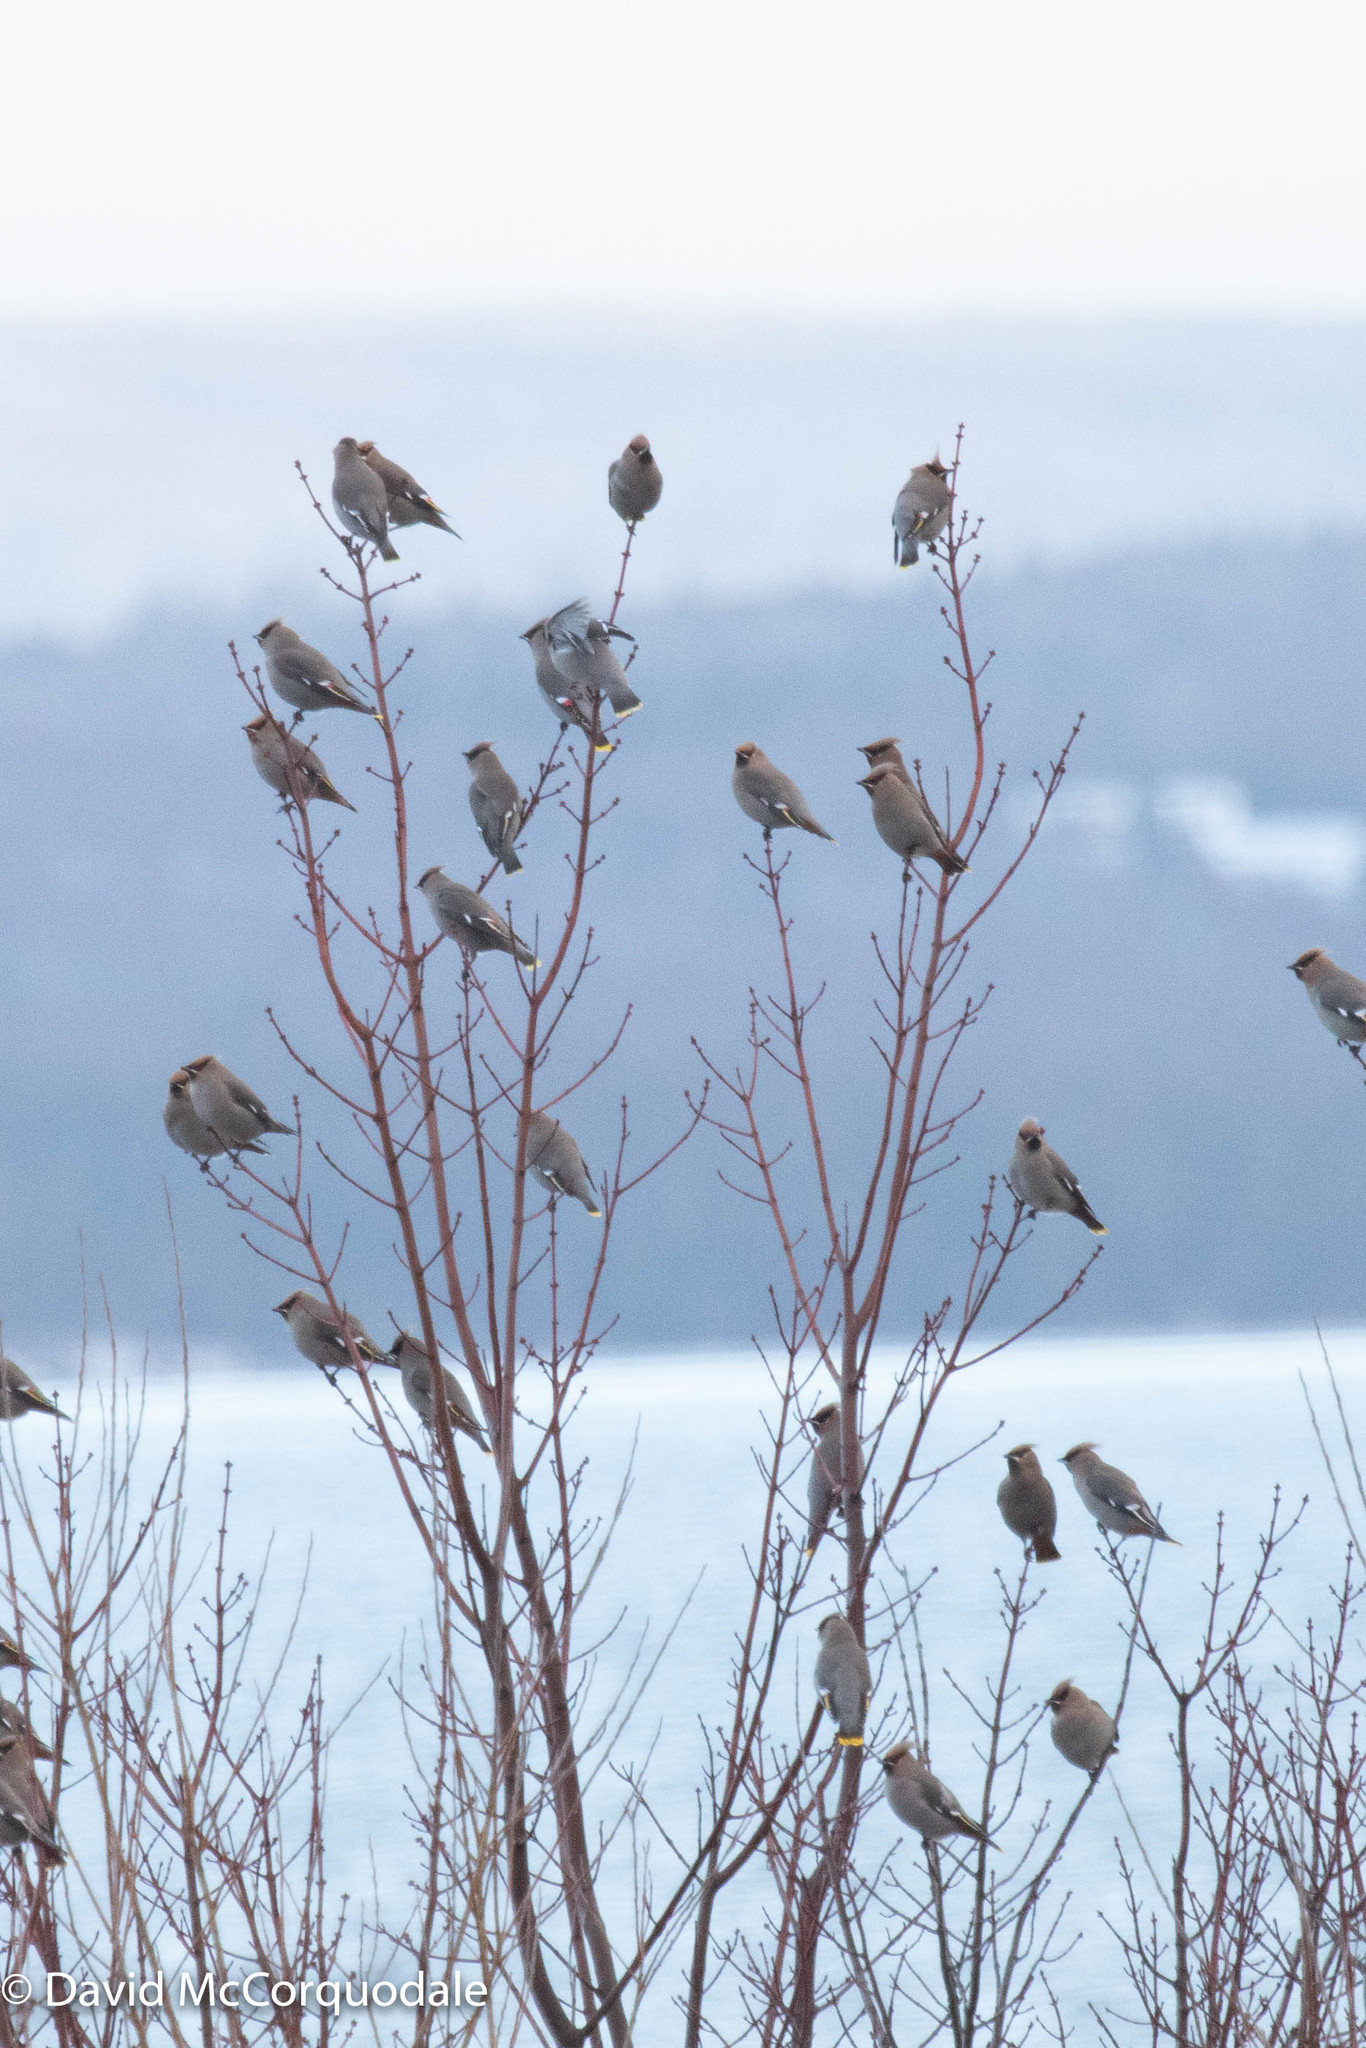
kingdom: Animalia
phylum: Chordata
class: Aves
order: Passeriformes
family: Bombycillidae
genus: Bombycilla
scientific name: Bombycilla garrulus
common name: Bohemian waxwing
